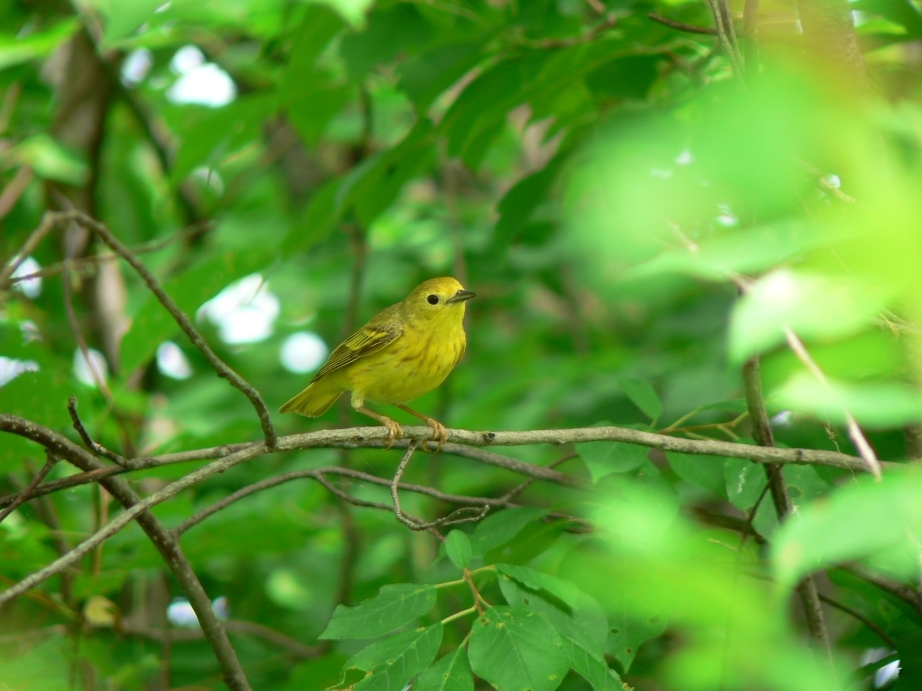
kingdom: Animalia
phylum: Chordata
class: Aves
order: Passeriformes
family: Parulidae
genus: Setophaga
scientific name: Setophaga petechia
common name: Yellow warbler
